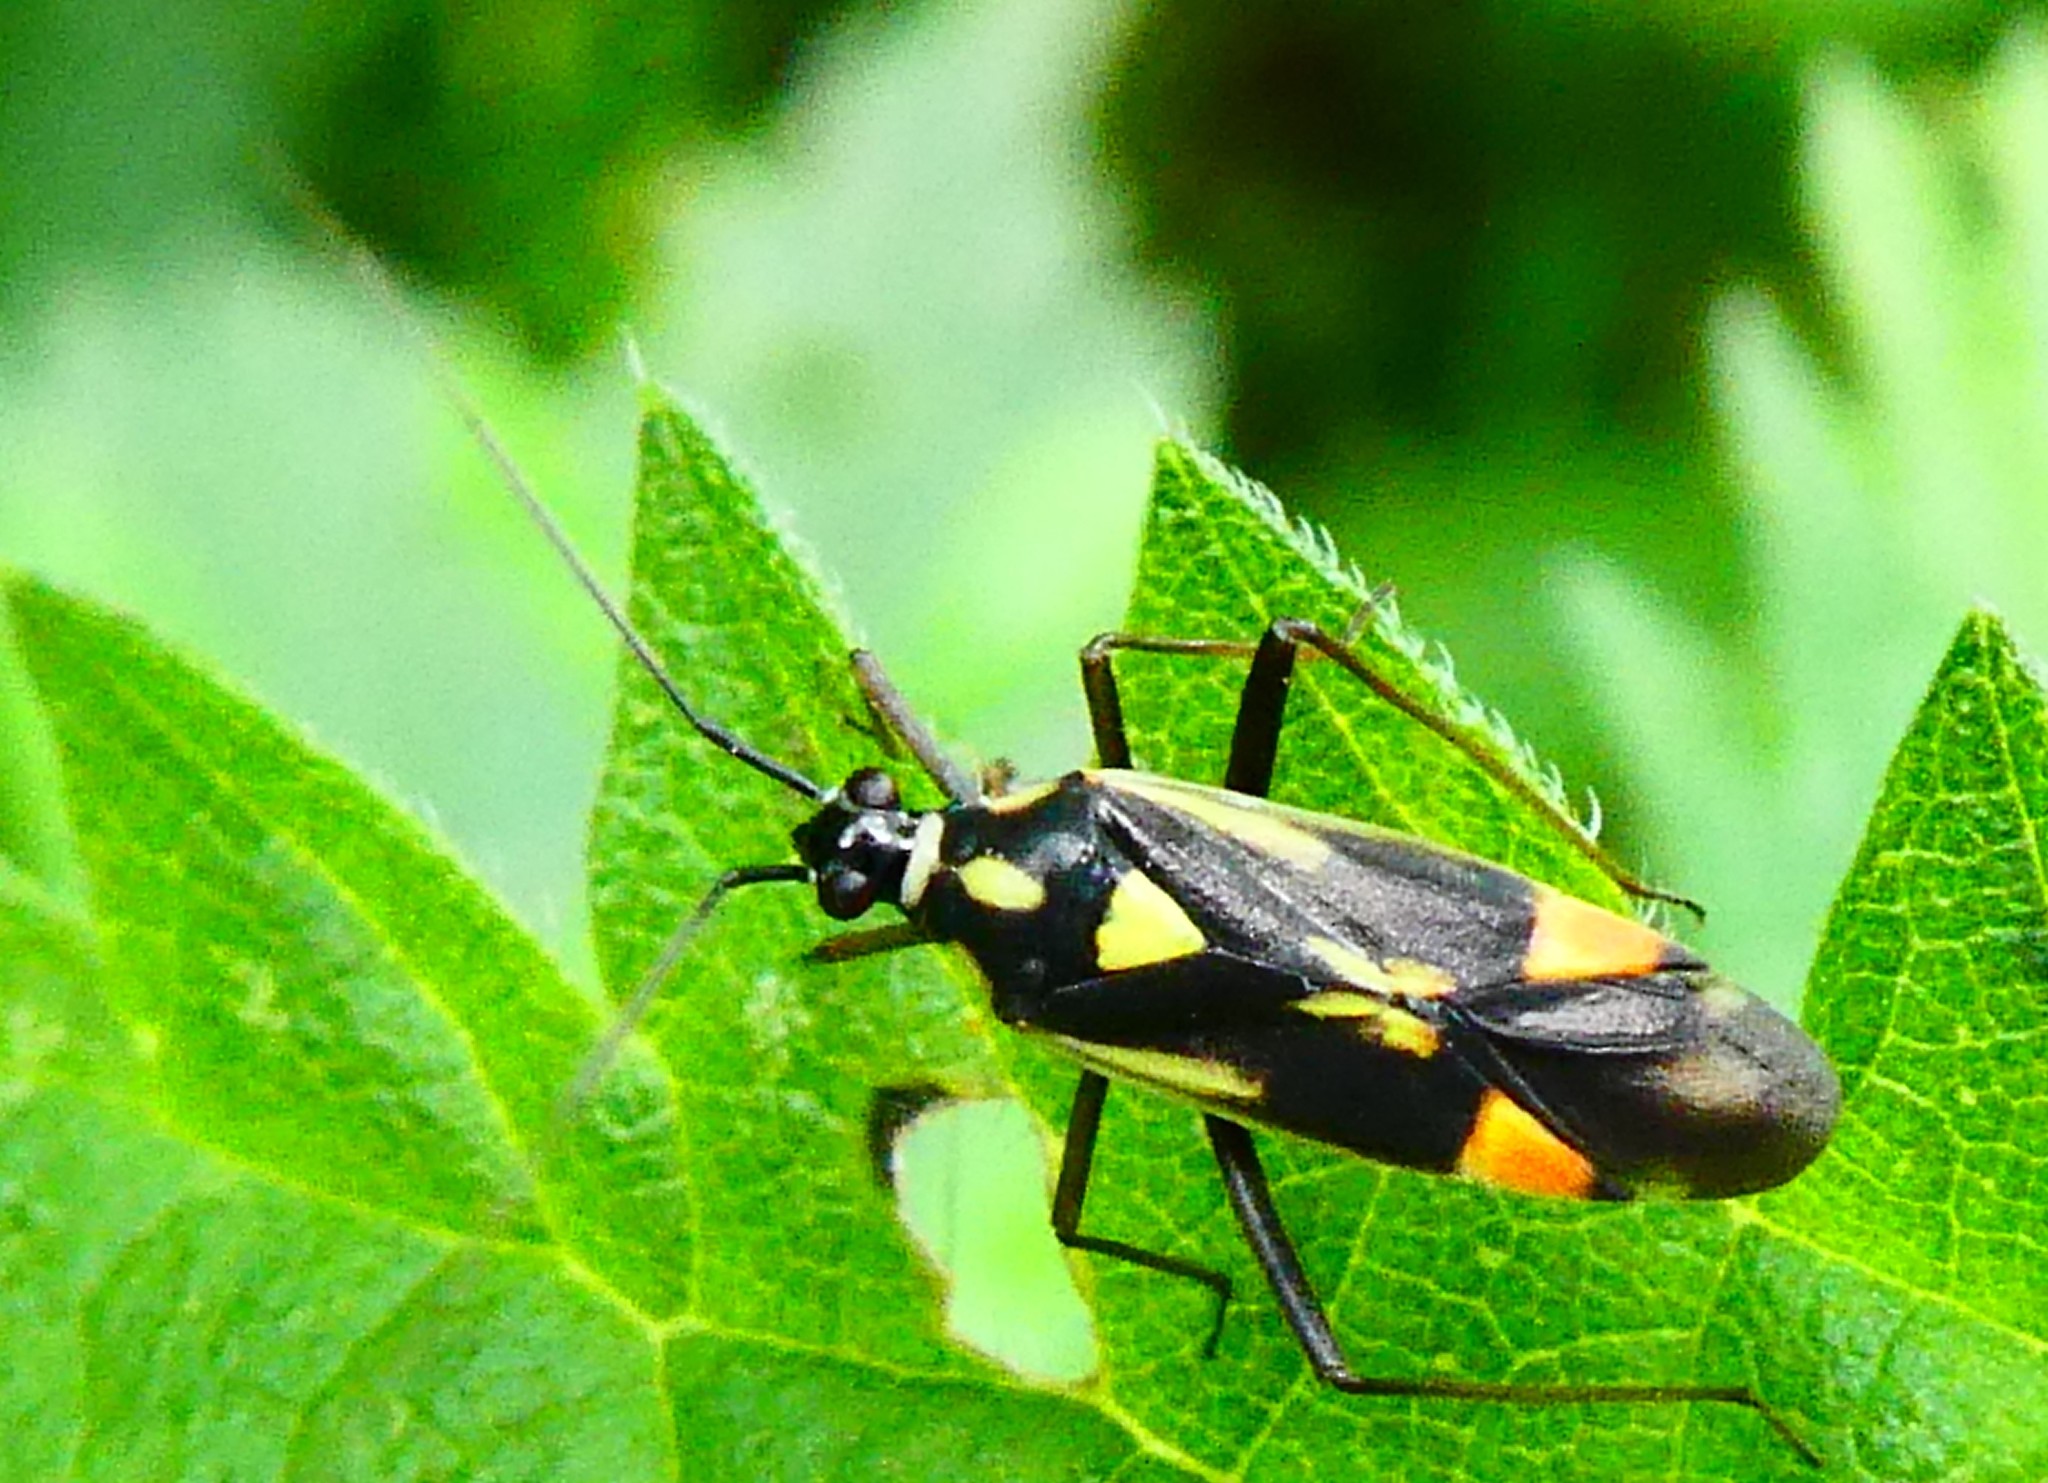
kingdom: Animalia
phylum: Arthropoda
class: Insecta
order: Hemiptera
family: Miridae
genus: Grypocoris
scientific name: Grypocoris stysi
